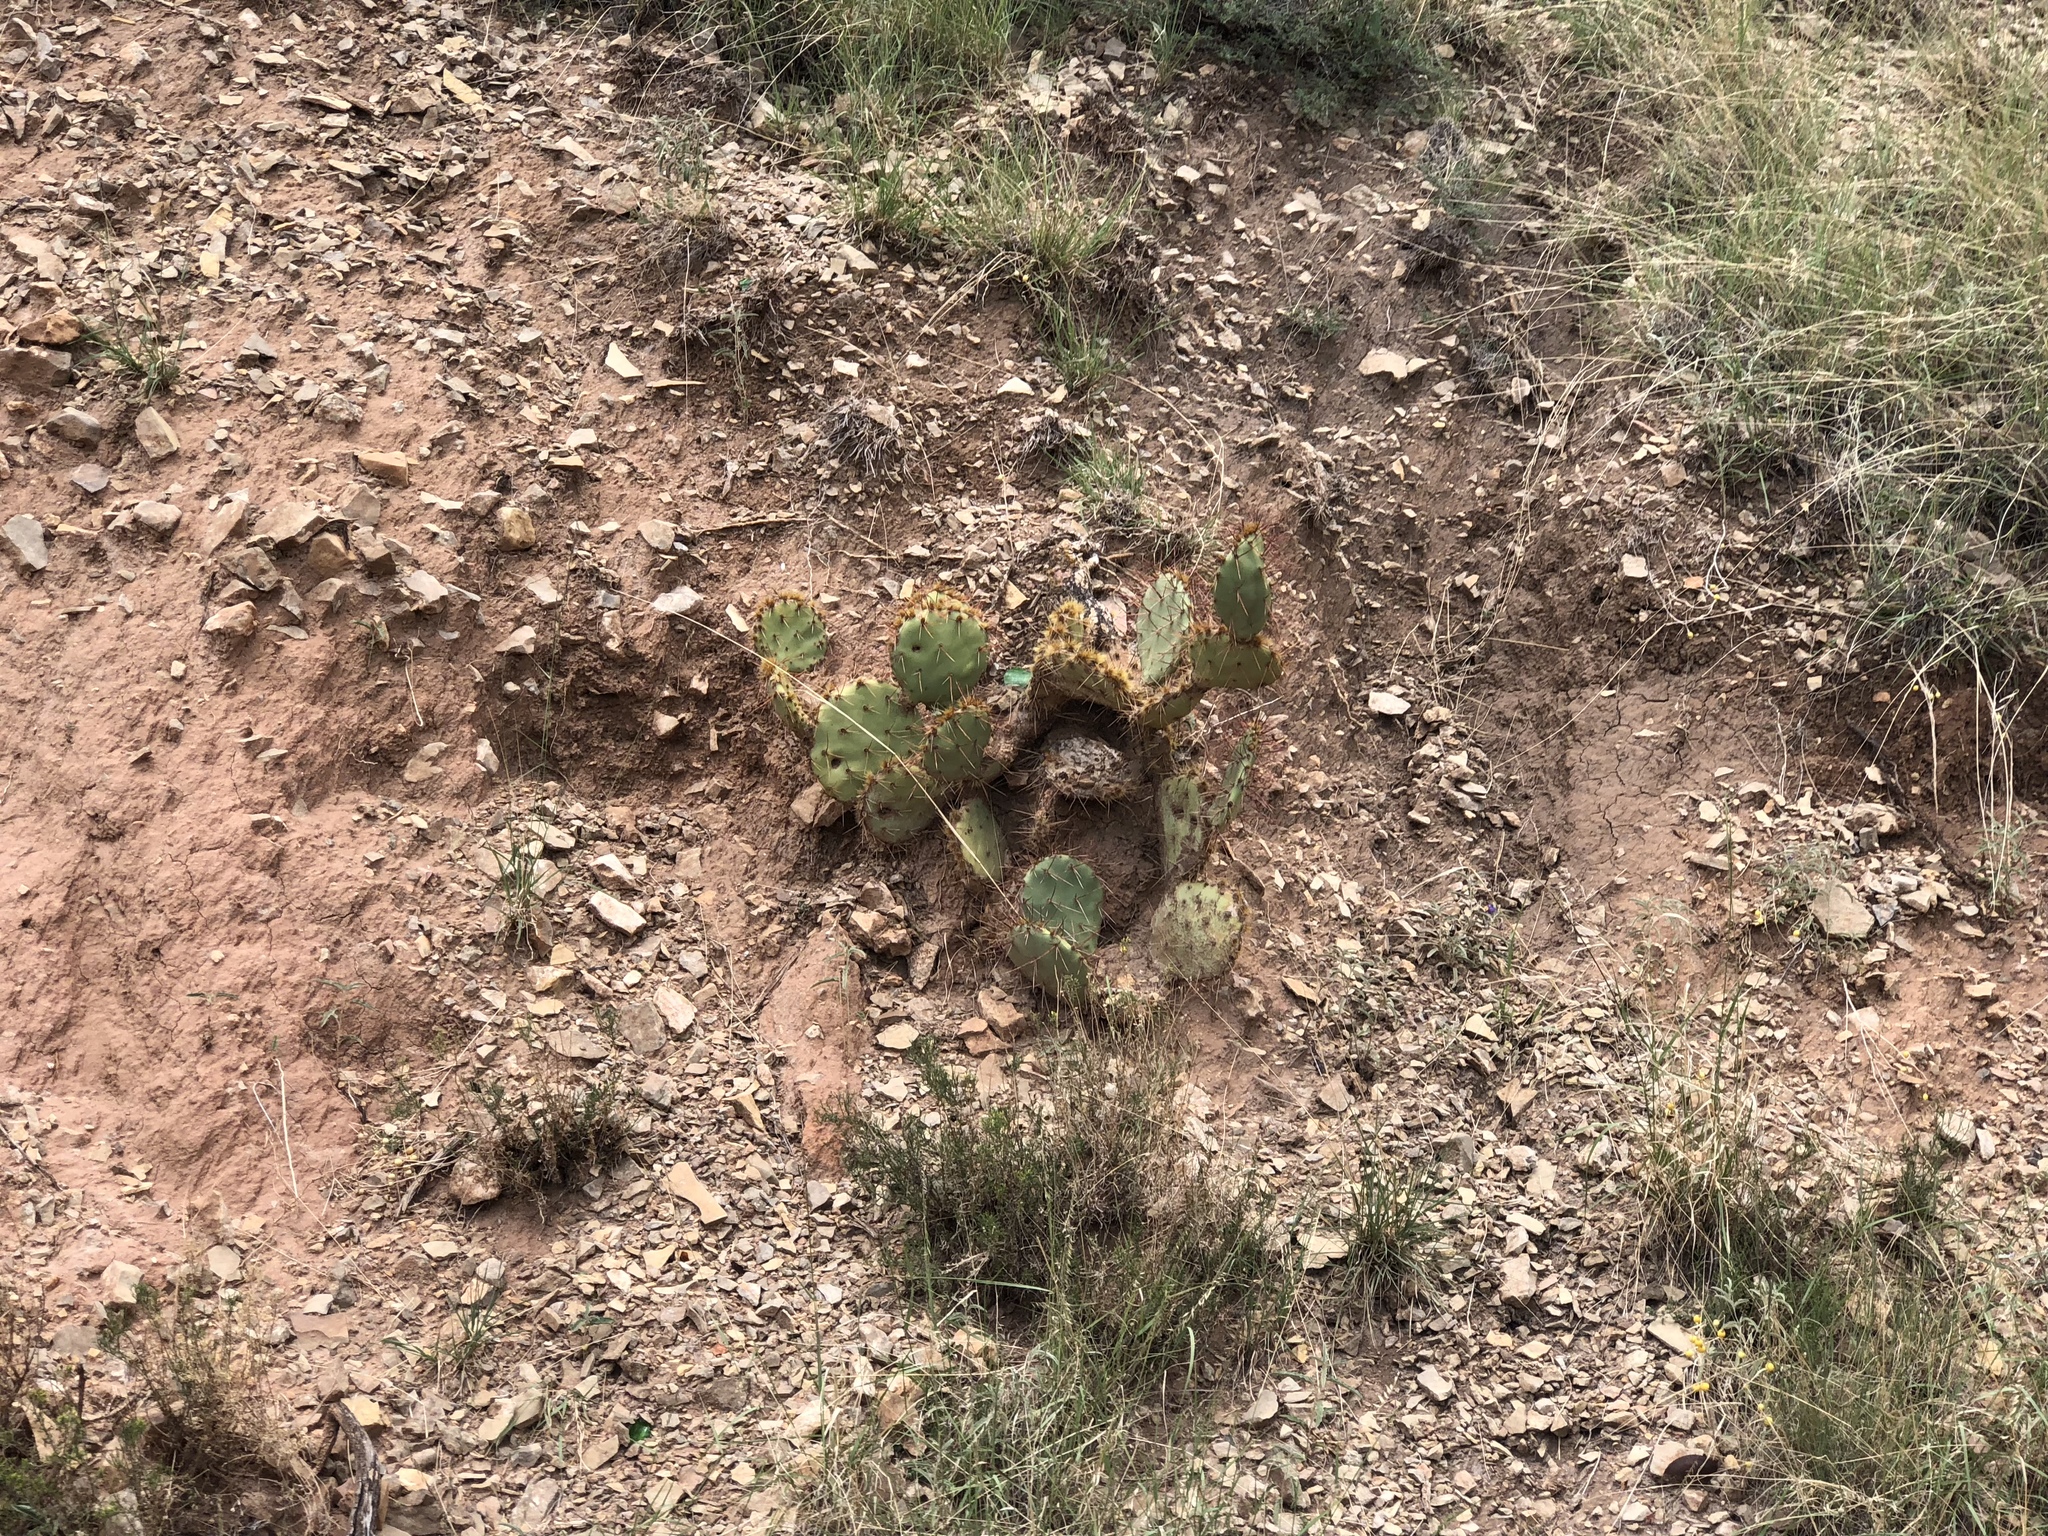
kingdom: Plantae
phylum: Tracheophyta
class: Magnoliopsida
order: Caryophyllales
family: Cactaceae
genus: Opuntia
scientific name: Opuntia phaeacantha
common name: New mexico prickly-pear
